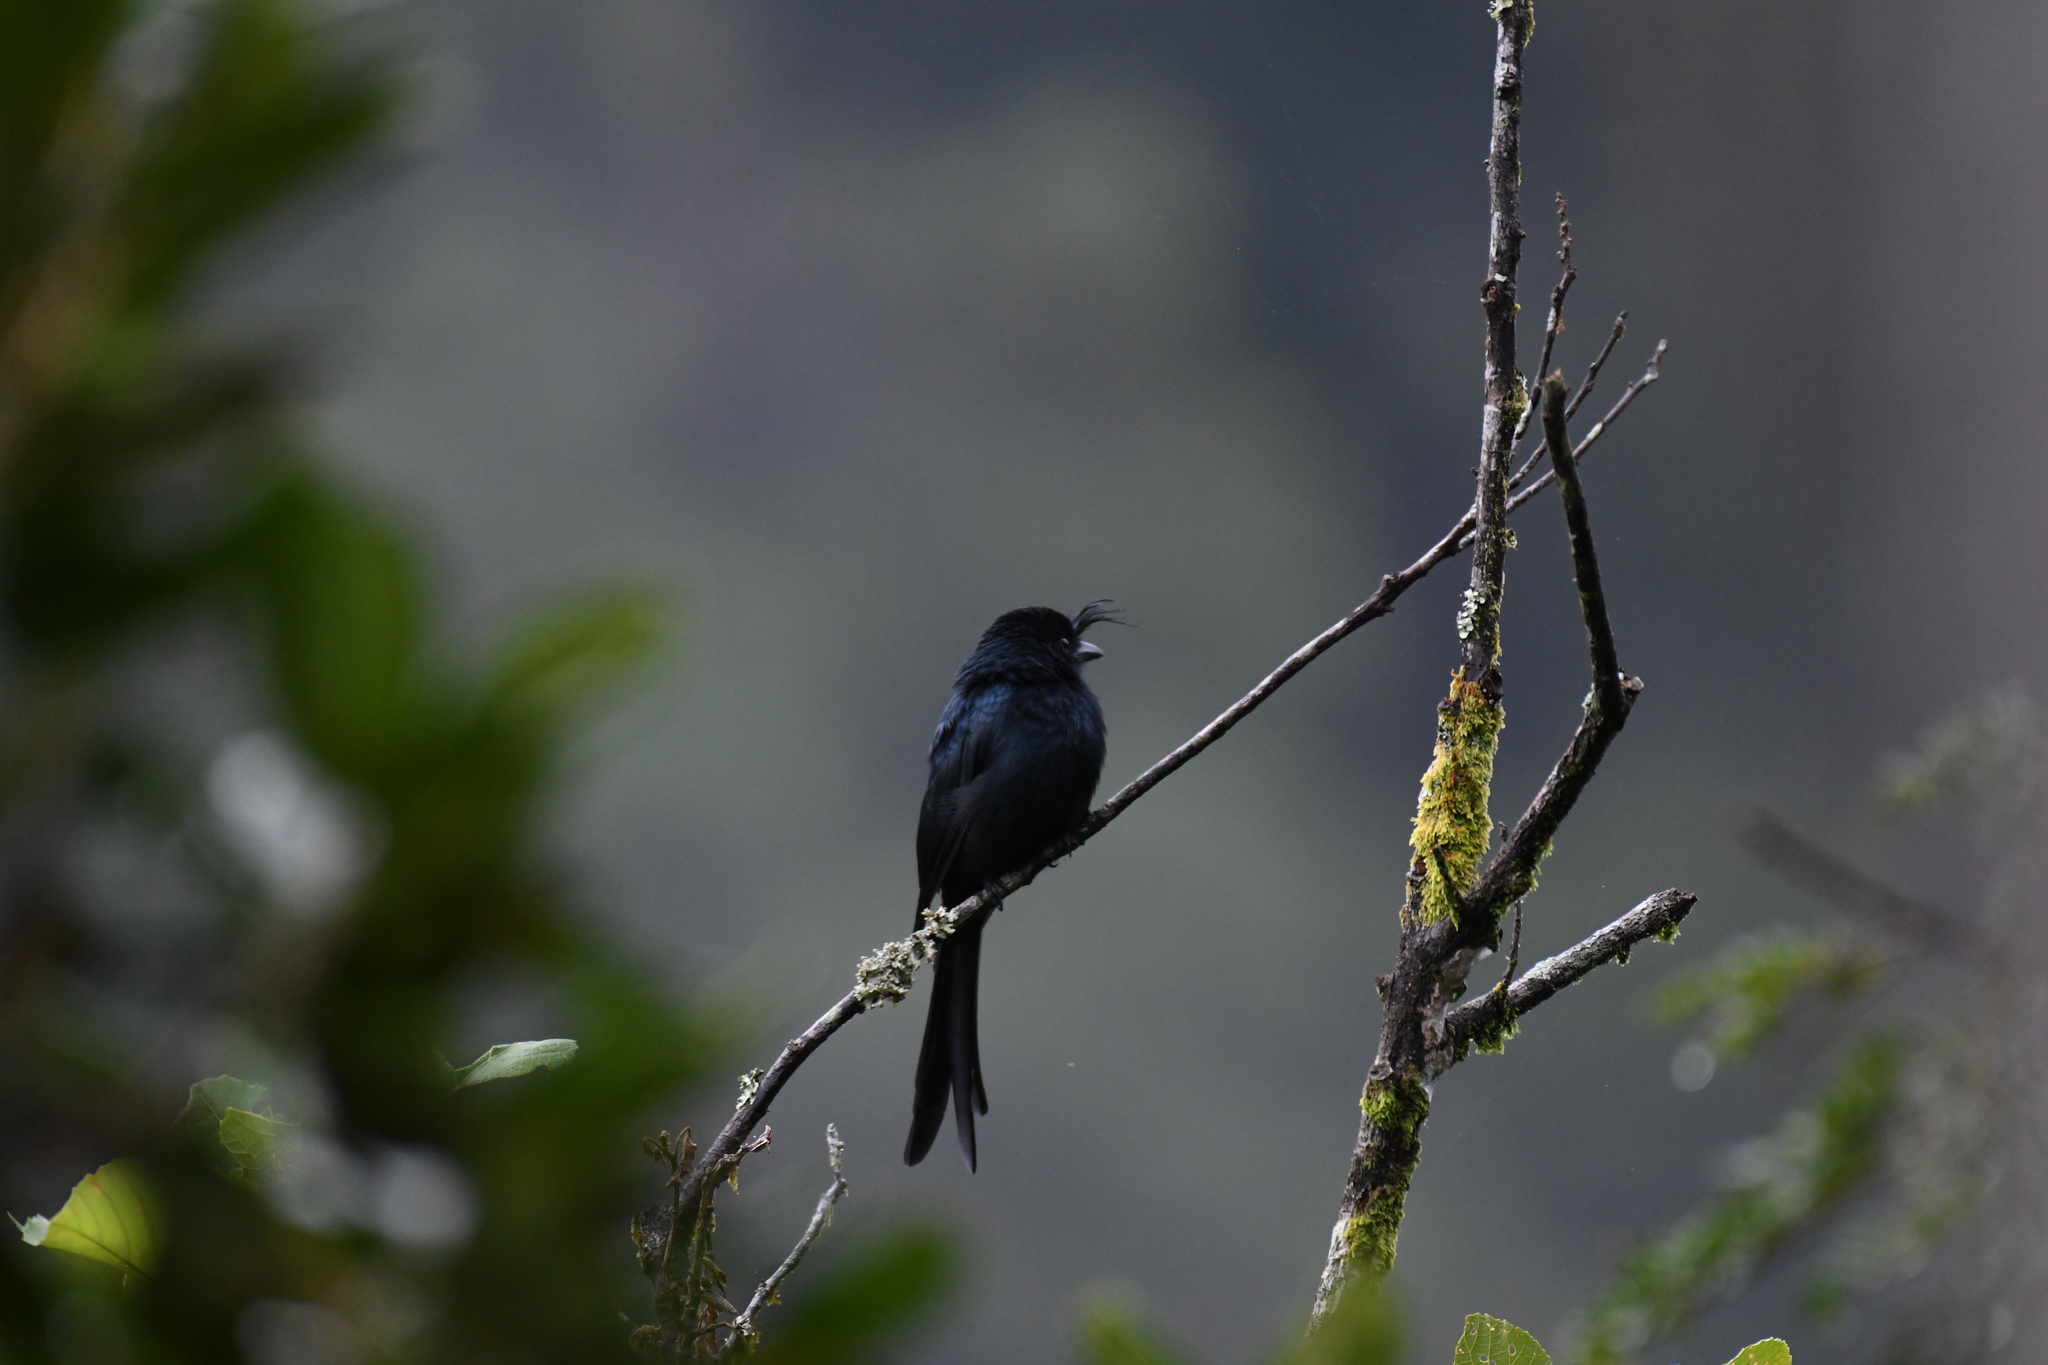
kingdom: Animalia
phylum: Chordata
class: Aves
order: Passeriformes
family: Dicruridae
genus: Dicrurus
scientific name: Dicrurus forficatus
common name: Crested drongo
